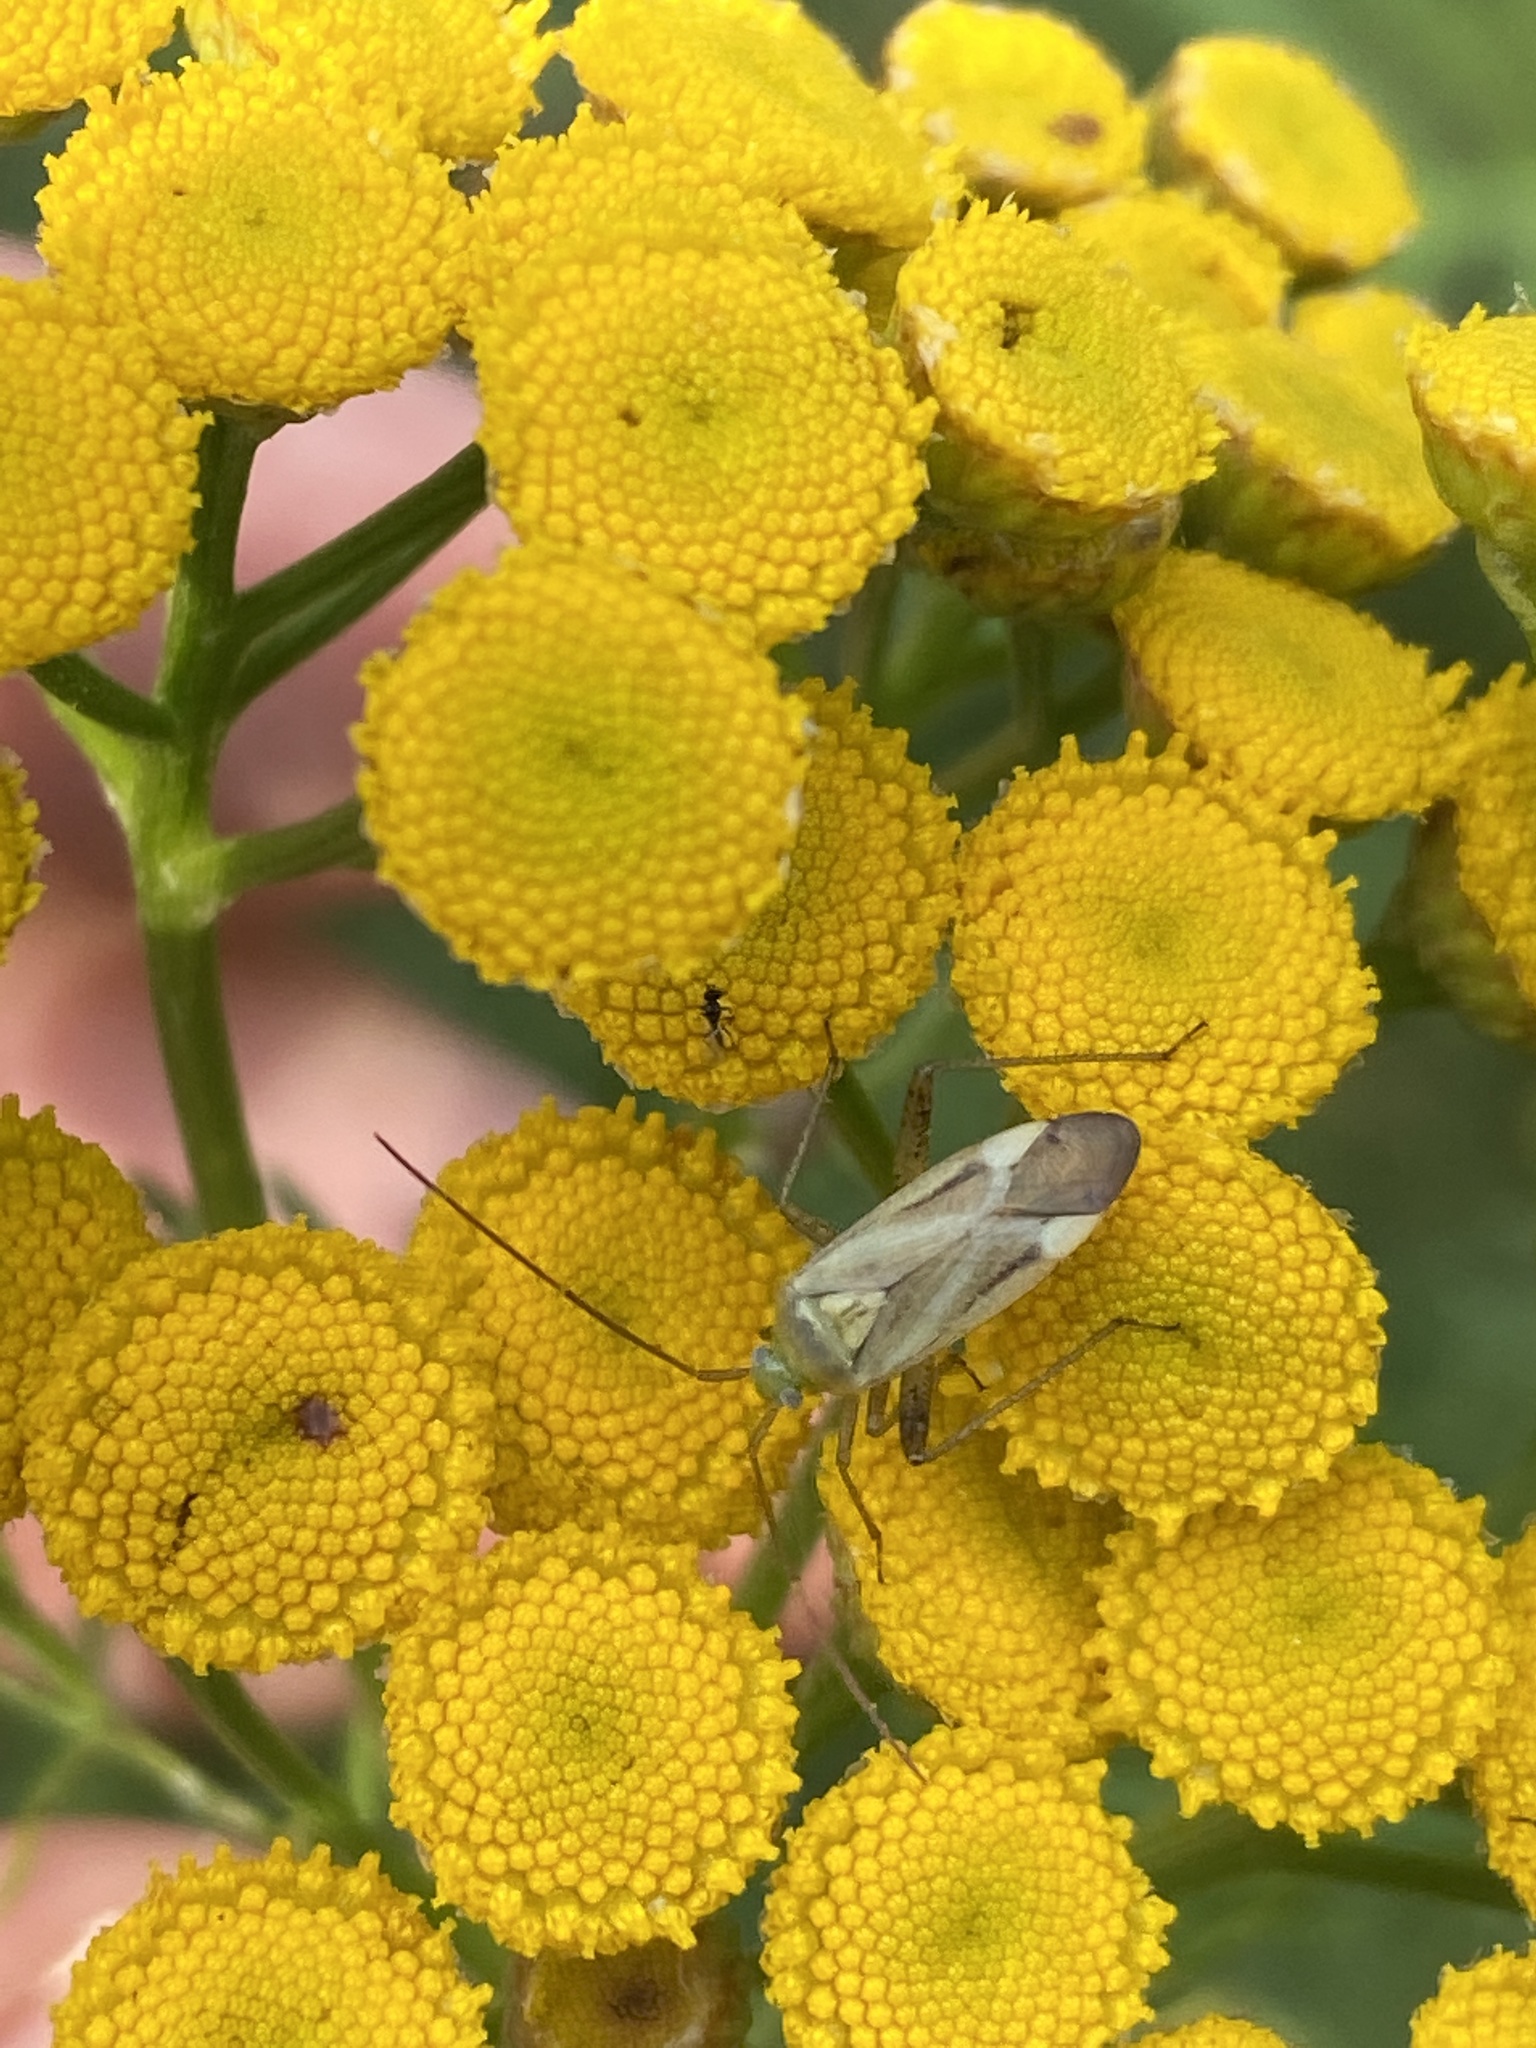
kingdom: Animalia
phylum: Arthropoda
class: Insecta
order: Hemiptera
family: Miridae
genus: Adelphocoris
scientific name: Adelphocoris lineolatus
